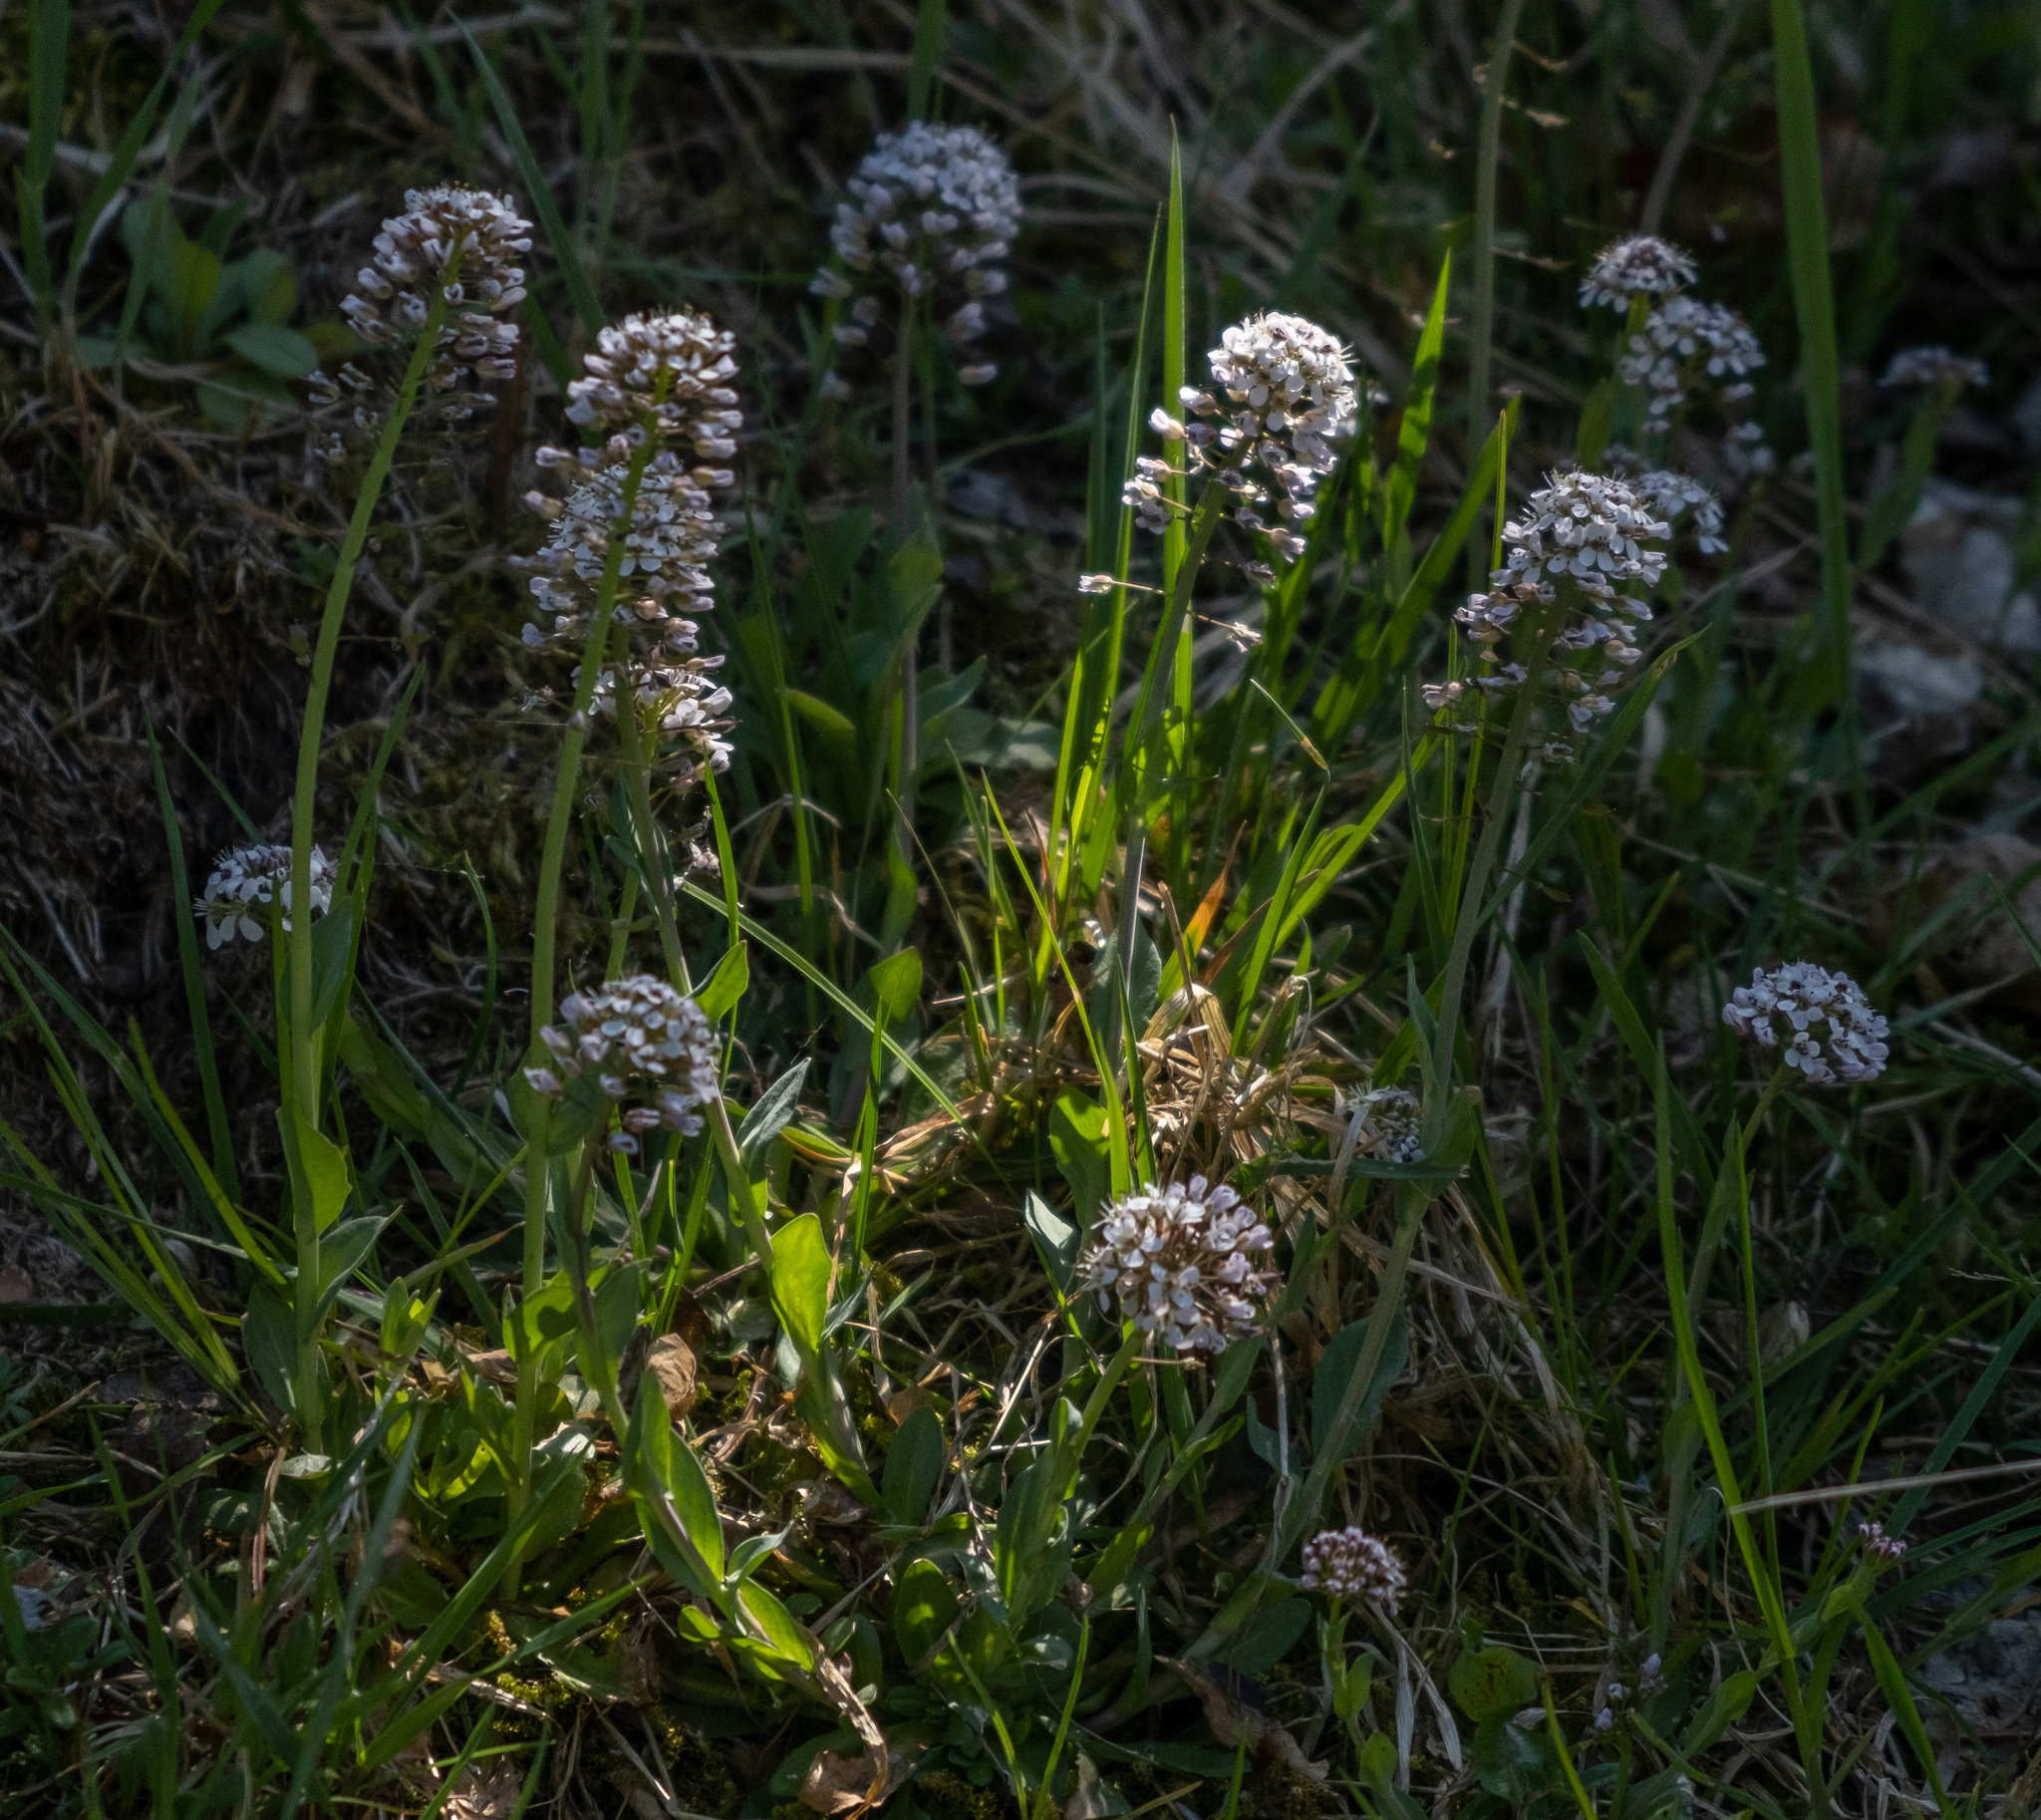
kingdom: Plantae
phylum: Tracheophyta
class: Magnoliopsida
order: Brassicales
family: Brassicaceae
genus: Noccaea
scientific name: Noccaea caerulescens
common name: Alpine pennycress
